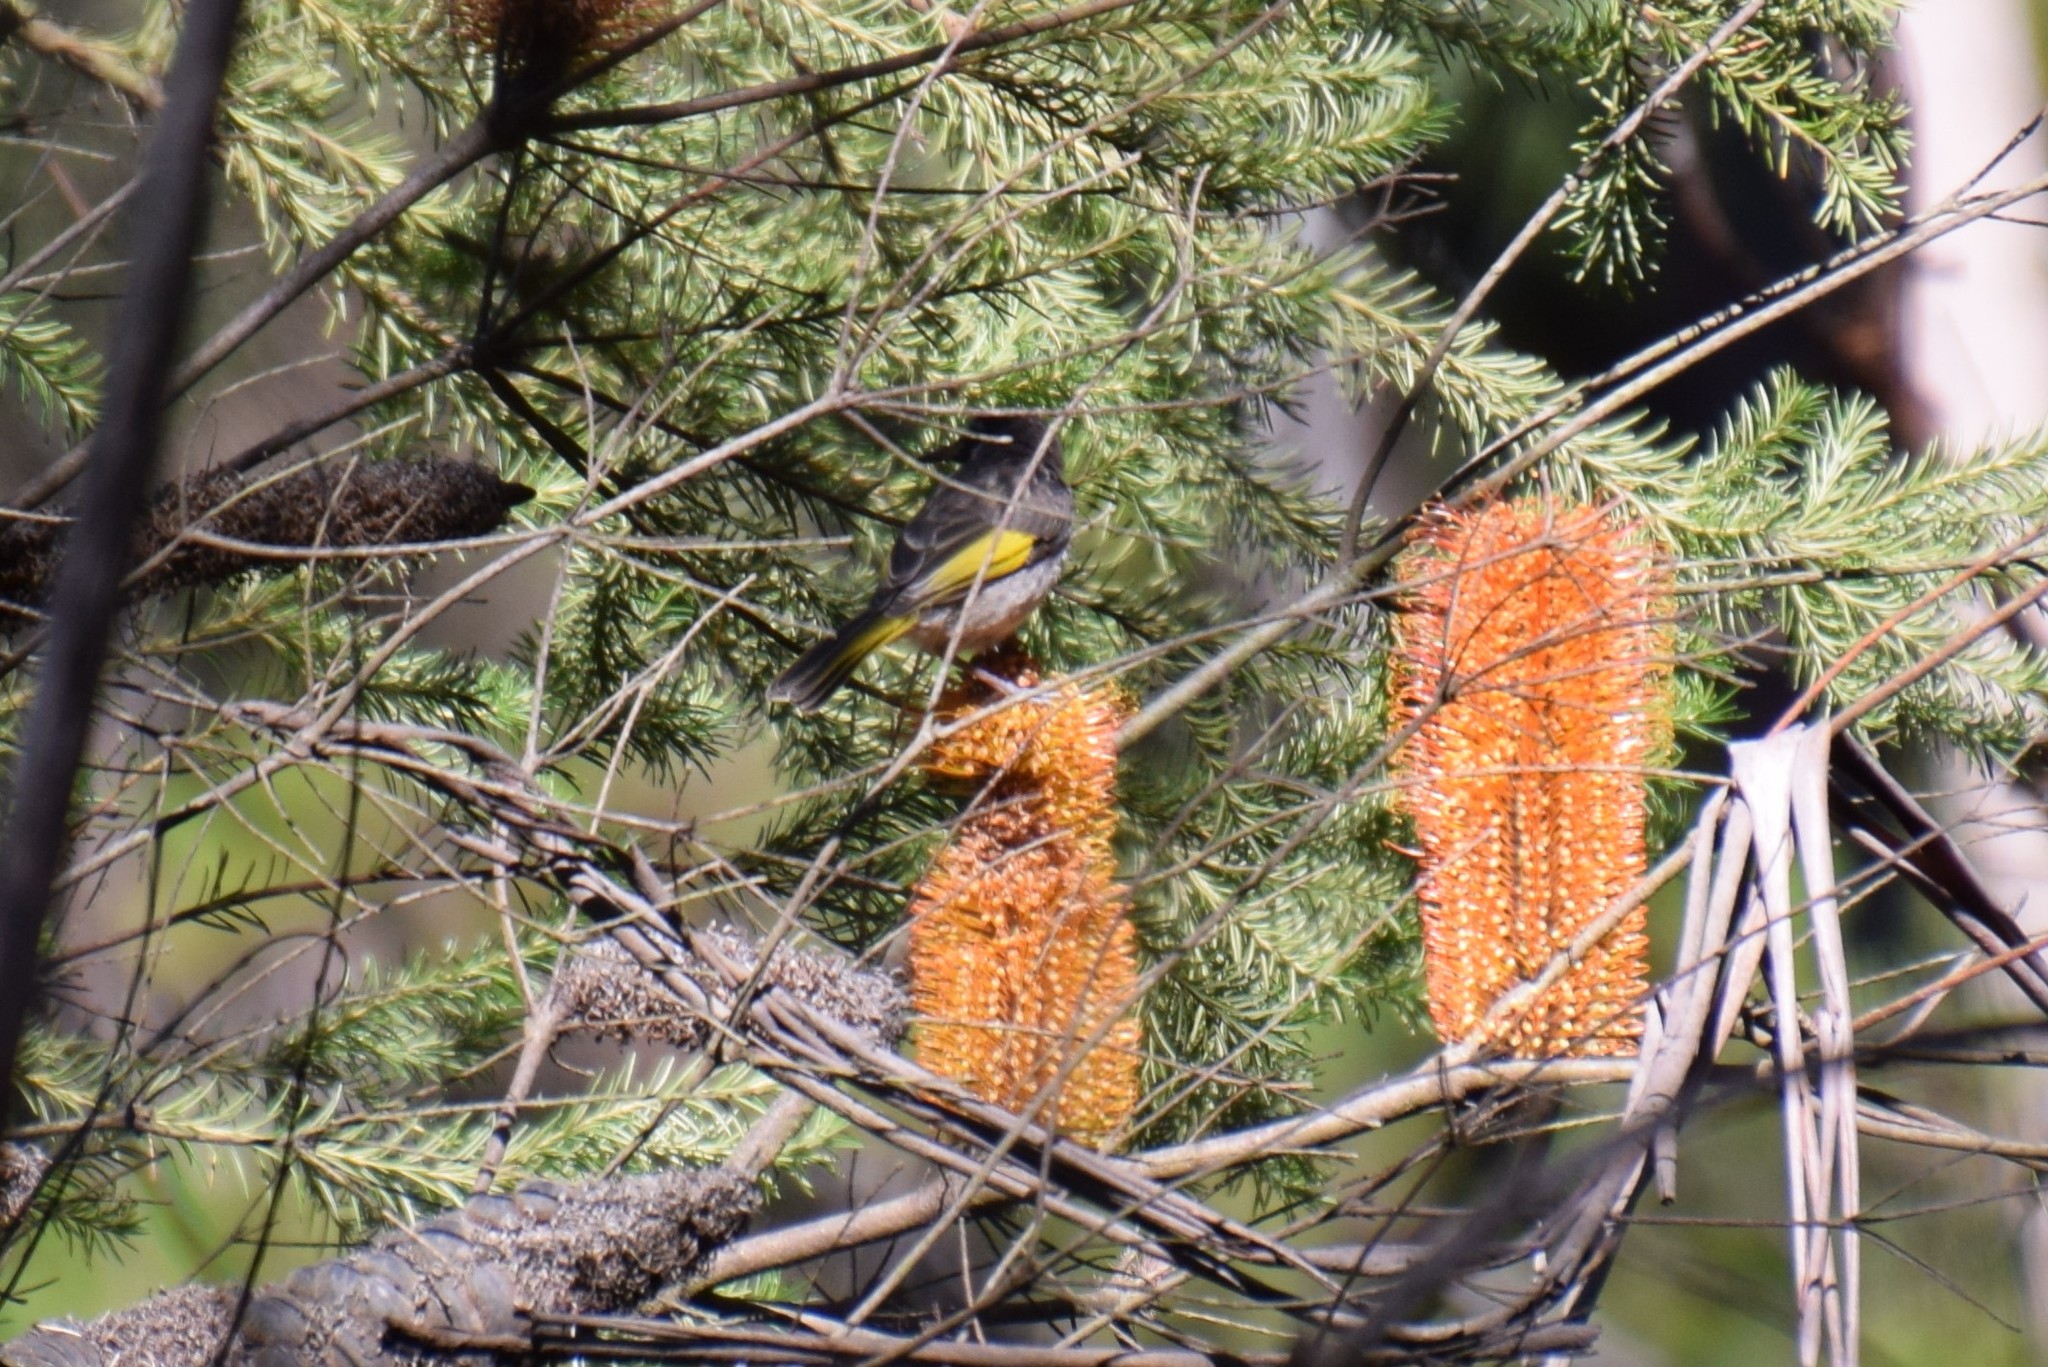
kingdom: Animalia
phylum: Chordata
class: Aves
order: Passeriformes
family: Meliphagidae
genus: Phylidonyris
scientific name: Phylidonyris novaehollandiae
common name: New holland honeyeater
